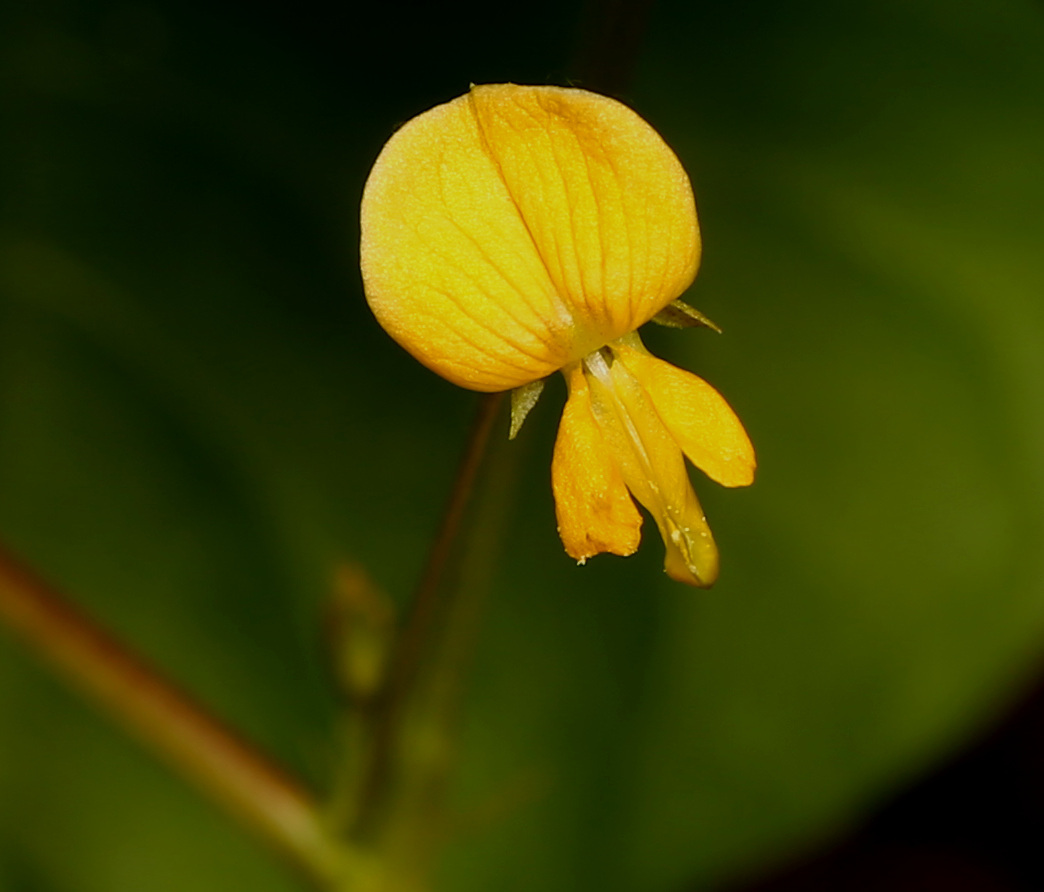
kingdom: Plantae
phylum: Tracheophyta
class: Magnoliopsida
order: Fabales
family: Fabaceae
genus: Rhynchosia
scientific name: Rhynchosia minima
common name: Least snoutbean
